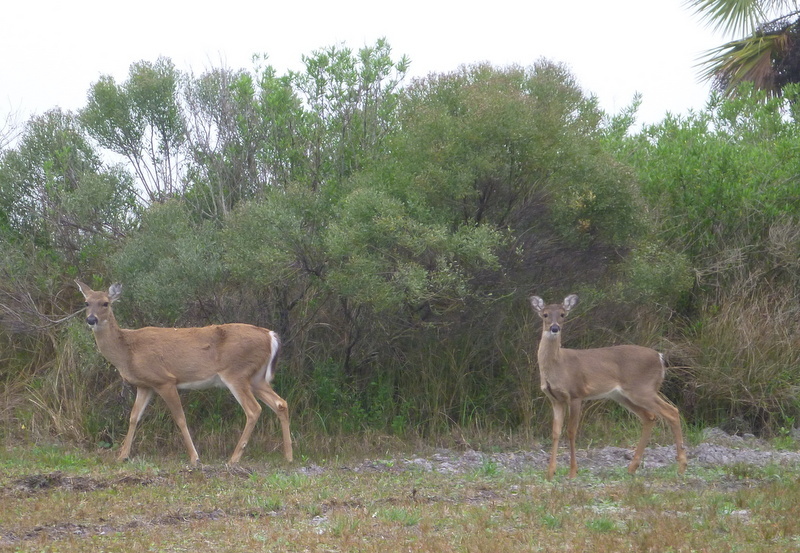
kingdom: Animalia
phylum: Chordata
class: Mammalia
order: Artiodactyla
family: Cervidae
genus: Odocoileus
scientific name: Odocoileus virginianus
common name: White-tailed deer
